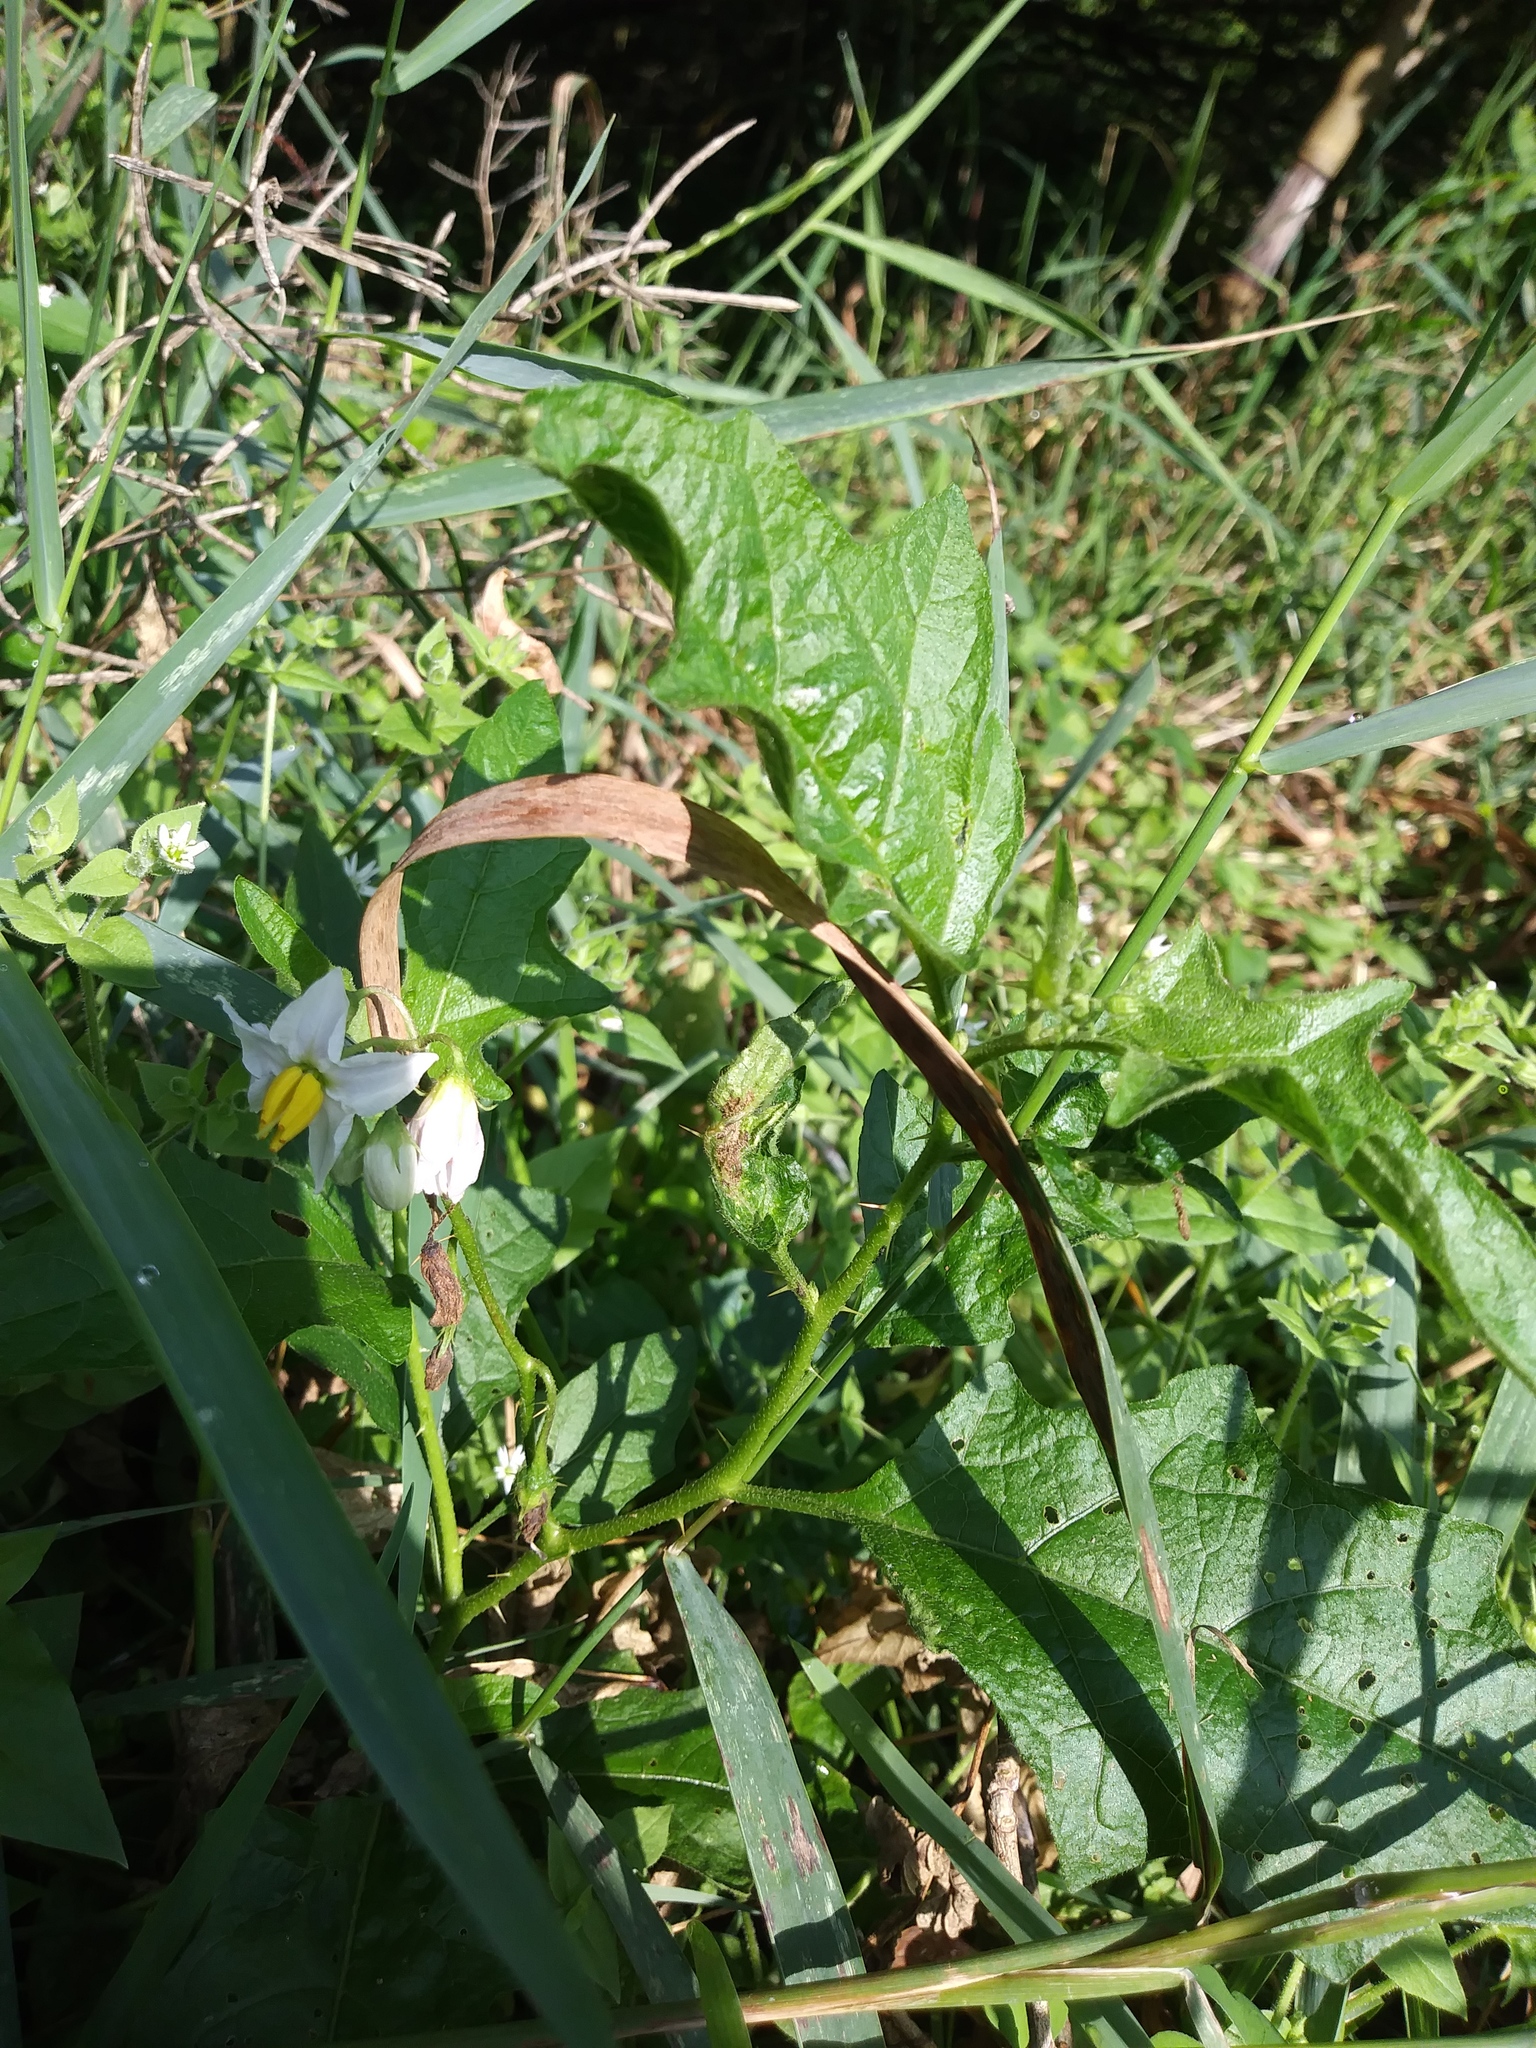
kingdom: Plantae
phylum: Tracheophyta
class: Magnoliopsida
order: Solanales
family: Solanaceae
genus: Solanum
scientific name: Solanum carolinense
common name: Horse-nettle
